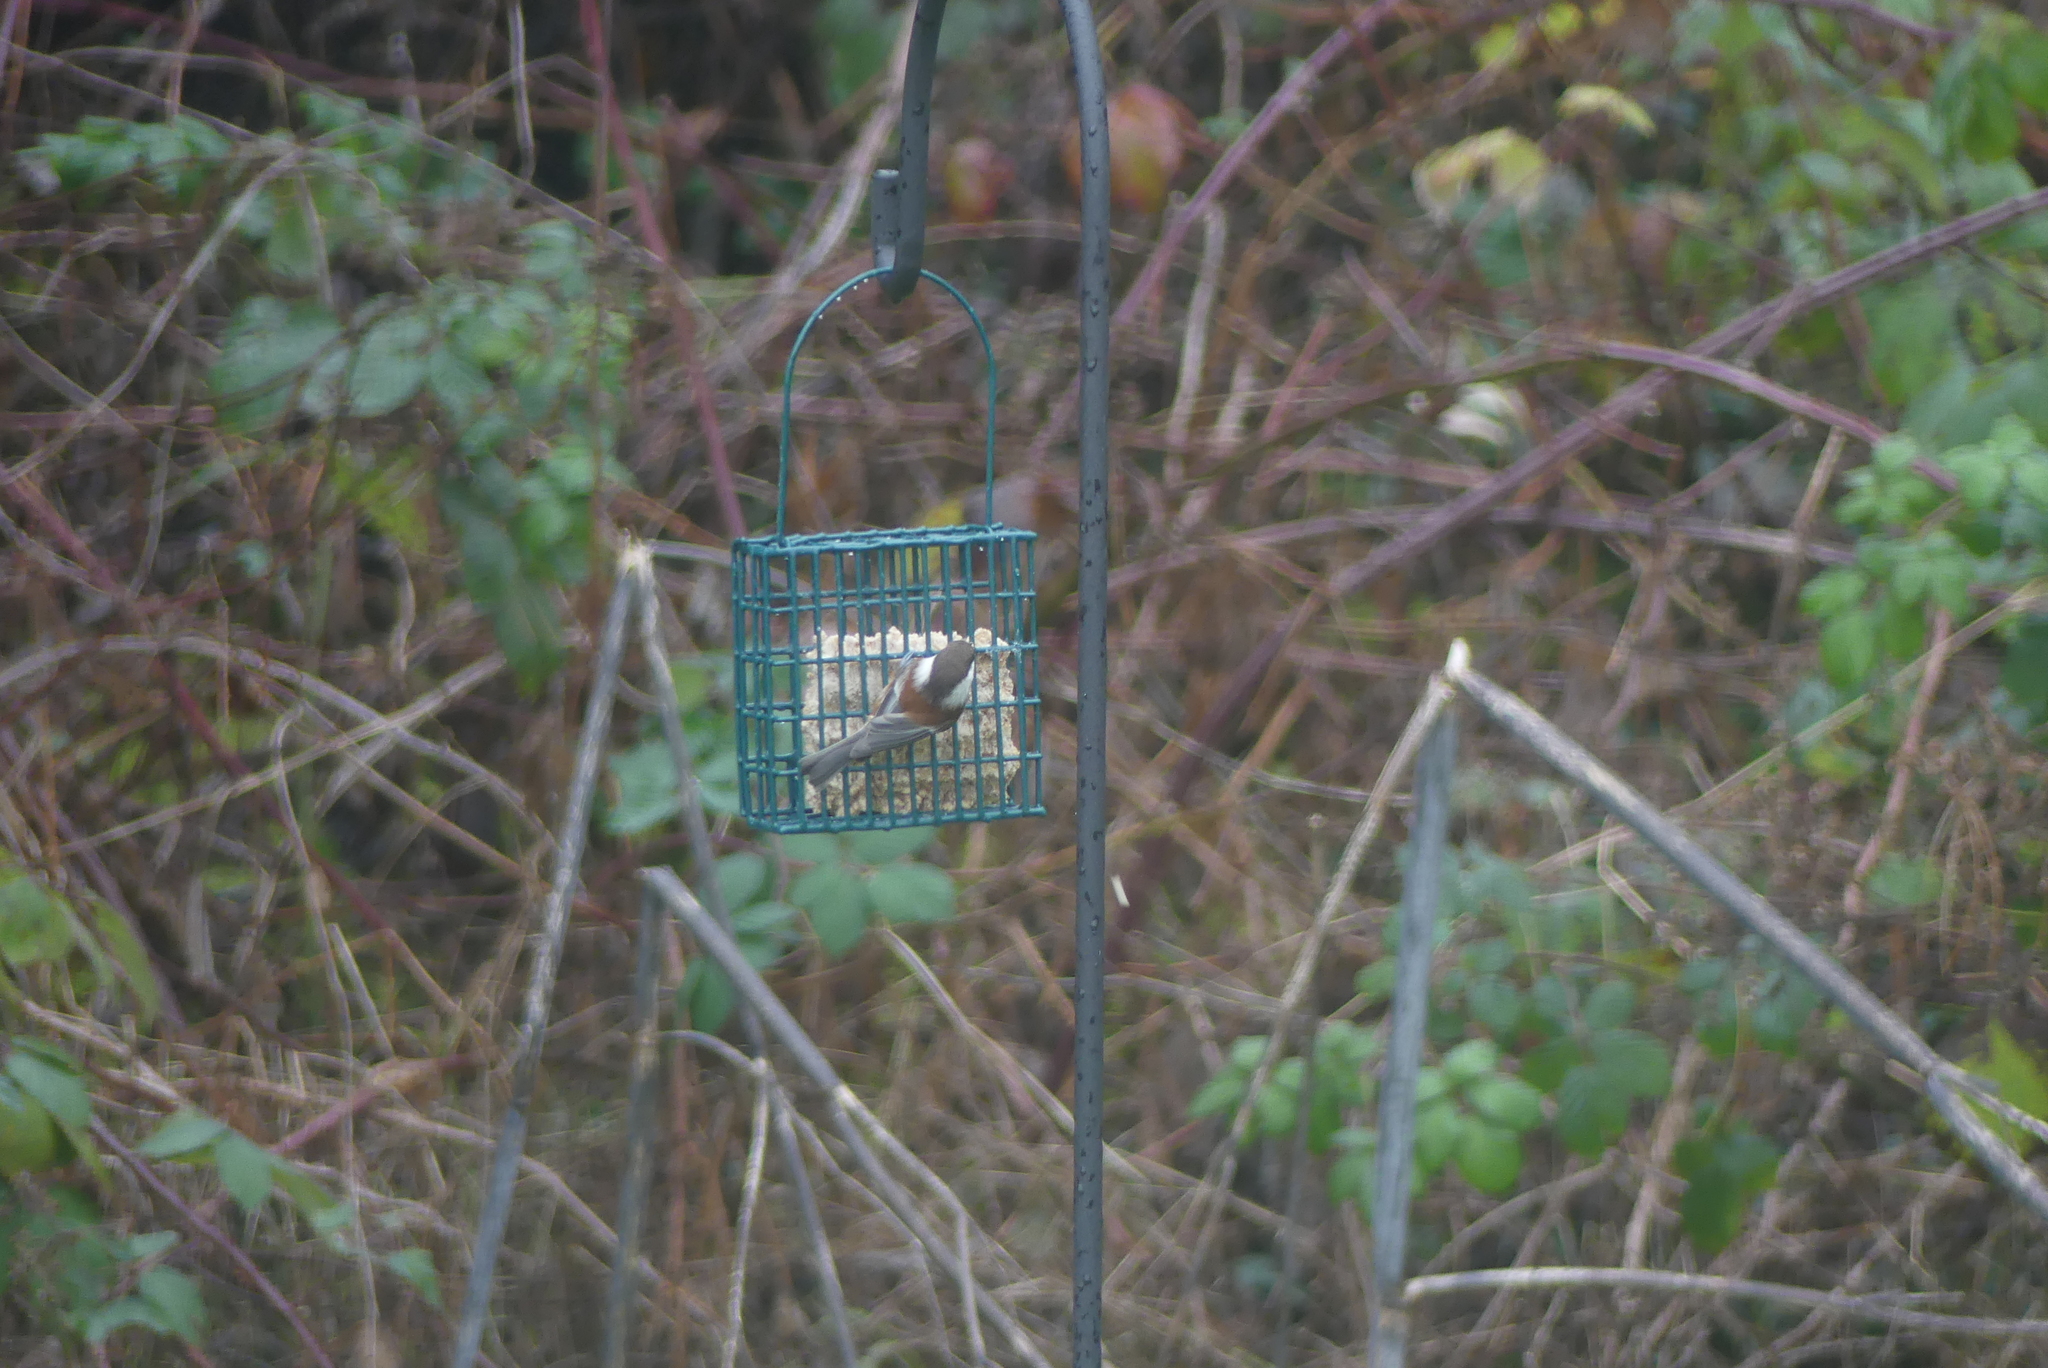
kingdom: Animalia
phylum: Chordata
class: Aves
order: Passeriformes
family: Paridae
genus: Poecile
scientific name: Poecile rufescens
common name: Chestnut-backed chickadee
